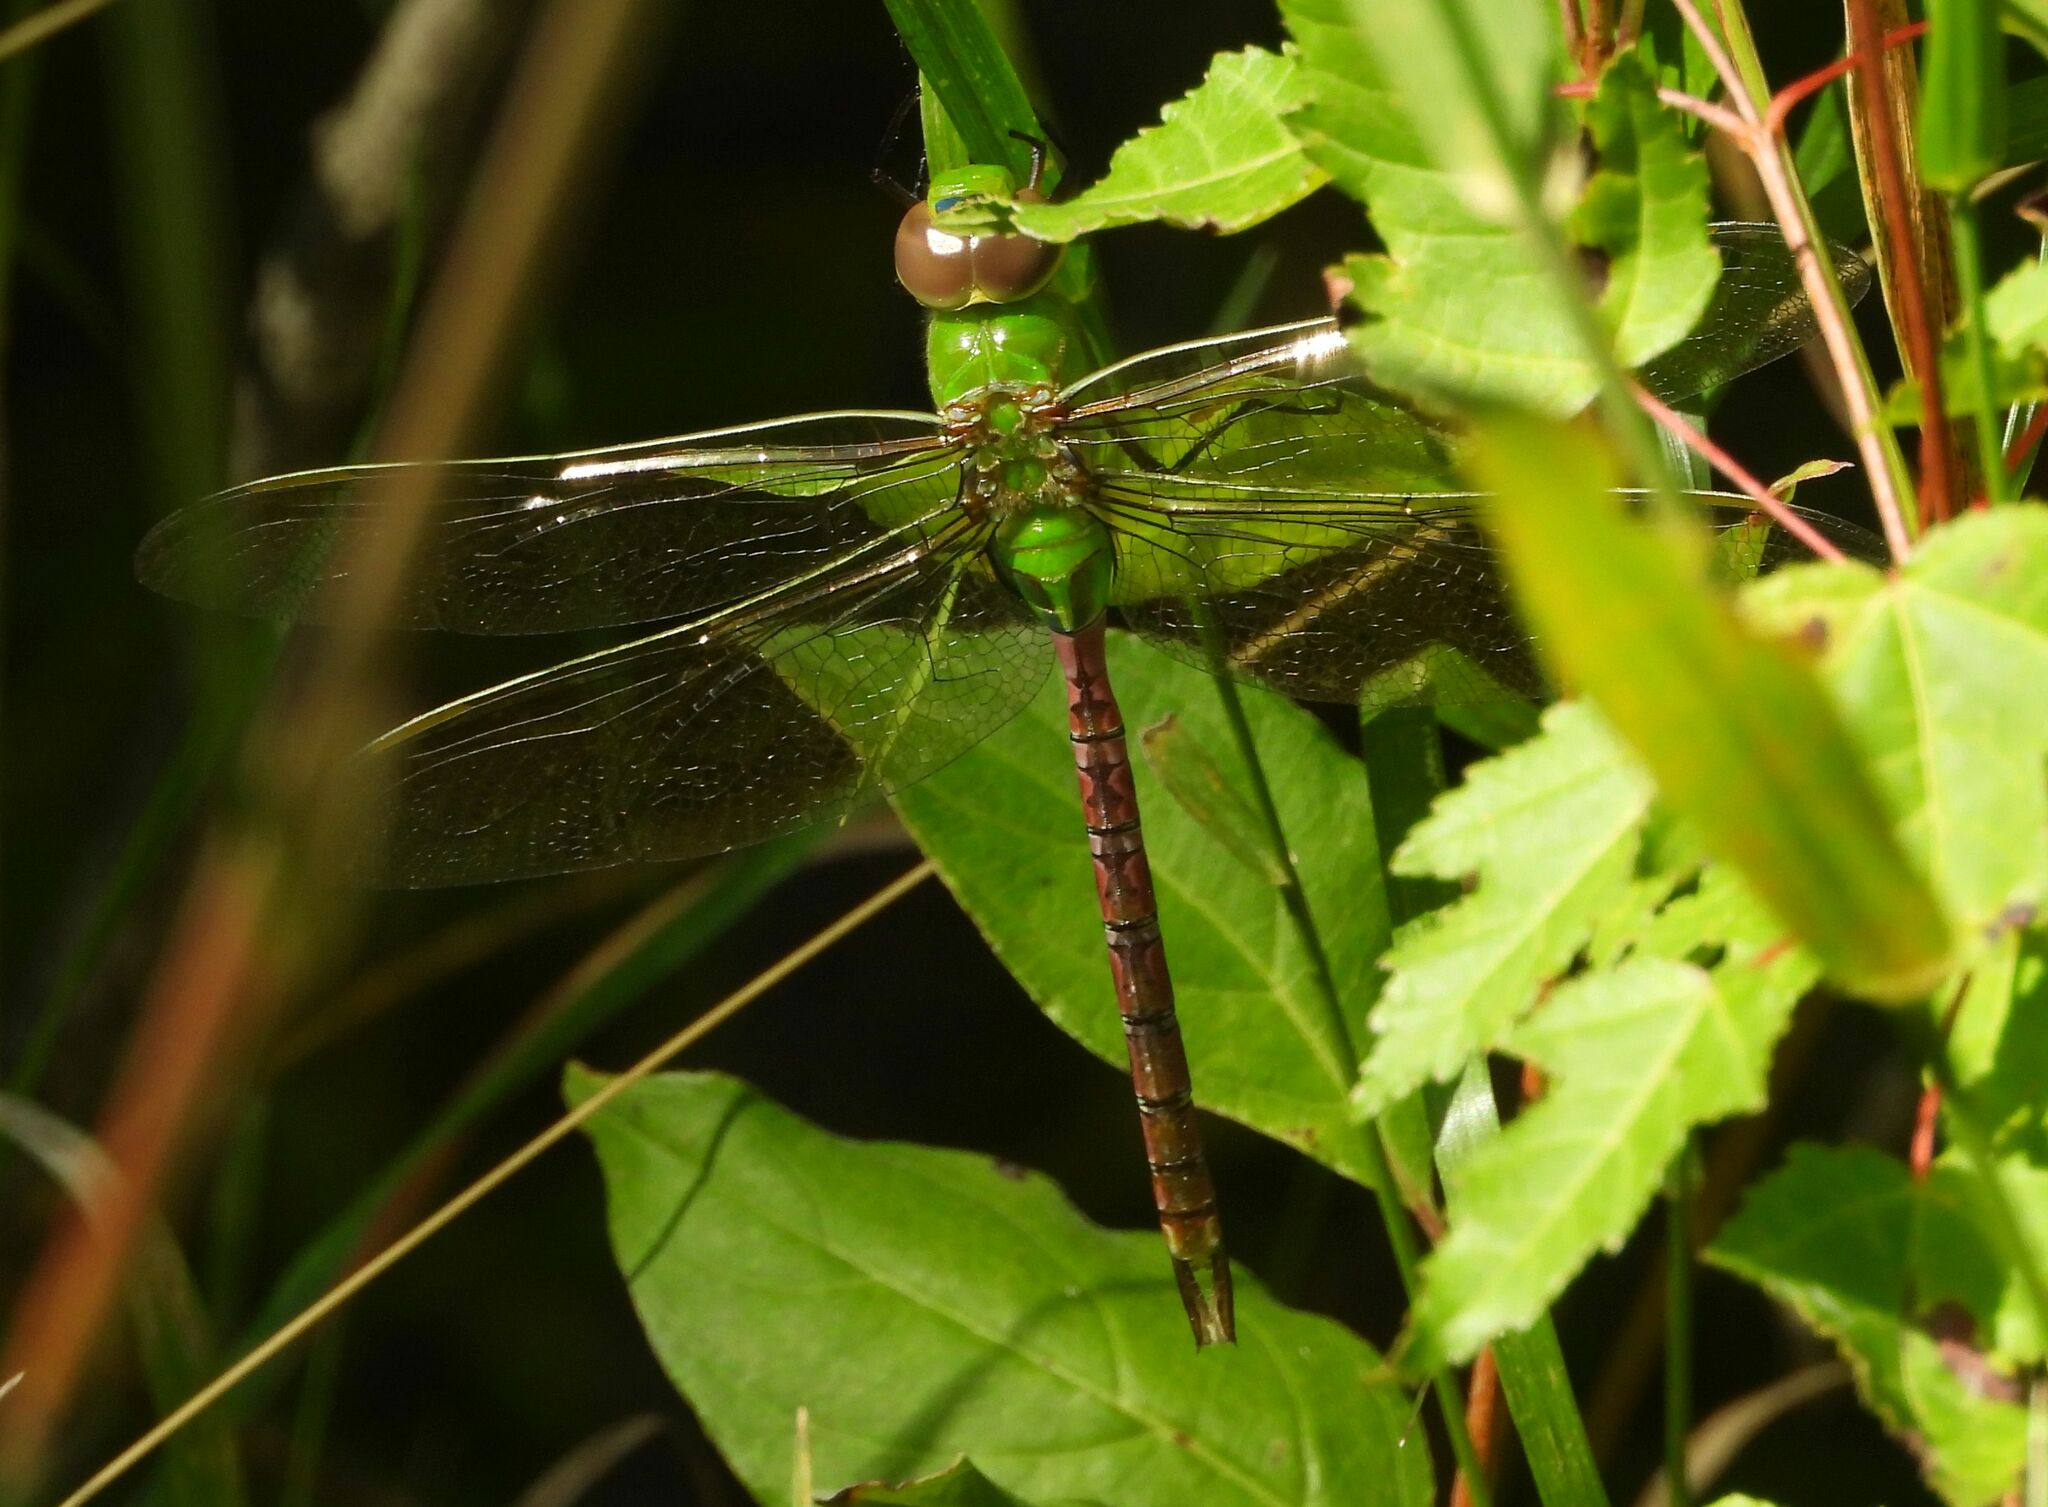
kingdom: Animalia
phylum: Arthropoda
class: Insecta
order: Odonata
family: Aeshnidae
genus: Anax
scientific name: Anax junius
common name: Common green darner
